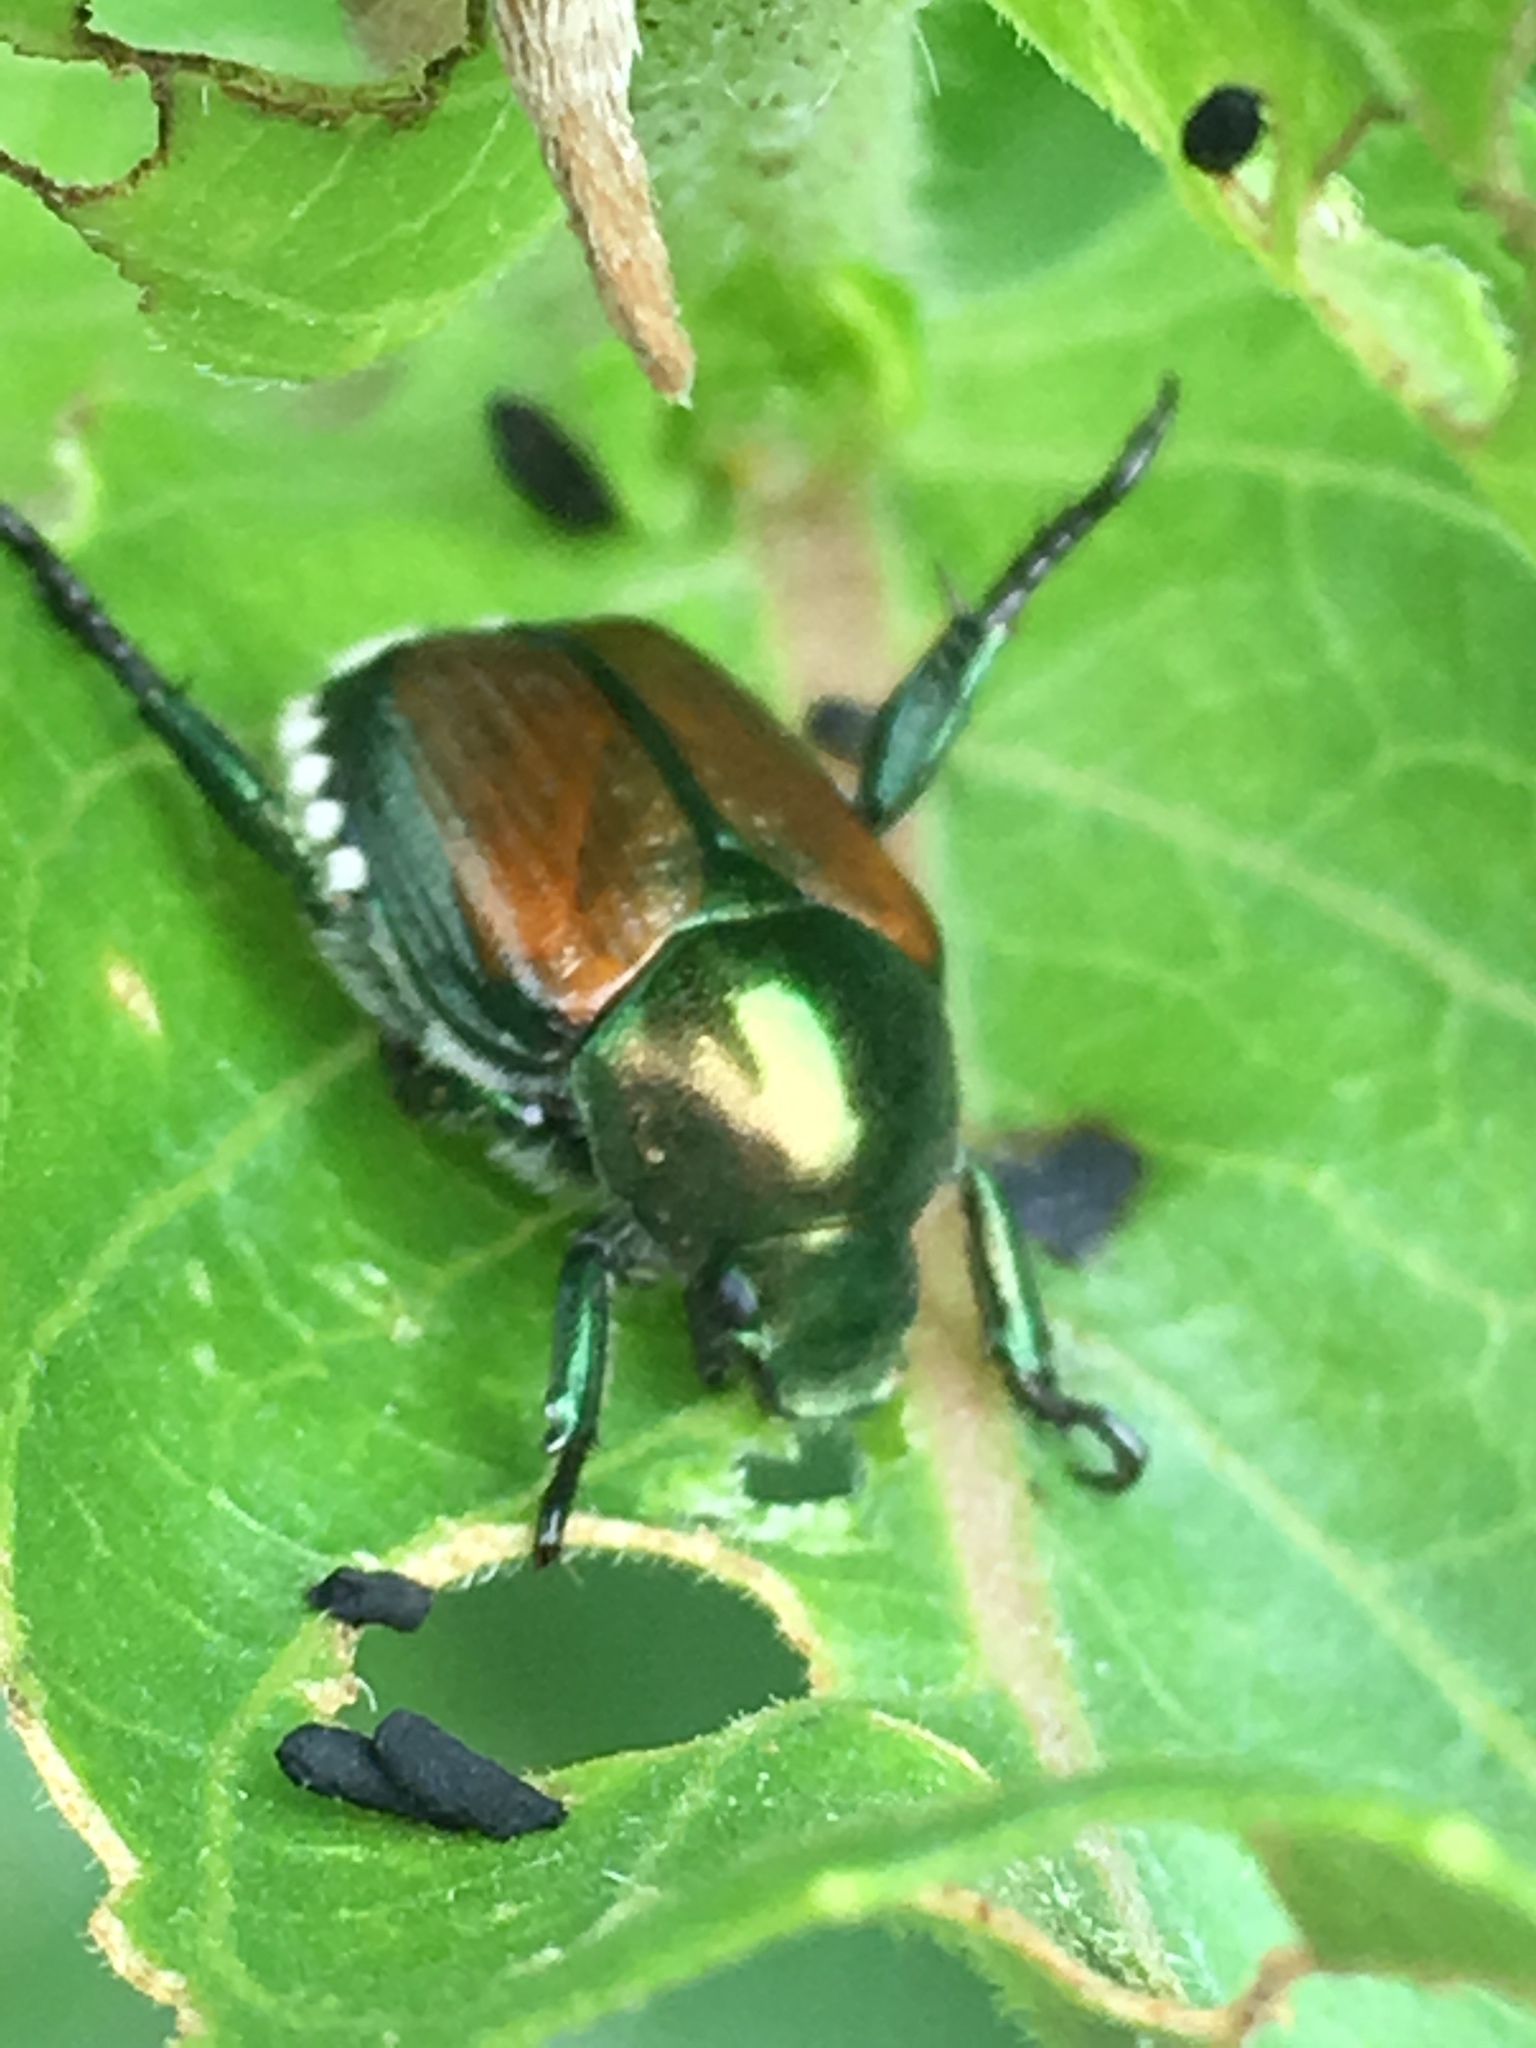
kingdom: Animalia
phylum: Arthropoda
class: Insecta
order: Coleoptera
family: Scarabaeidae
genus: Popillia
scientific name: Popillia japonica
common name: Japanese beetle
